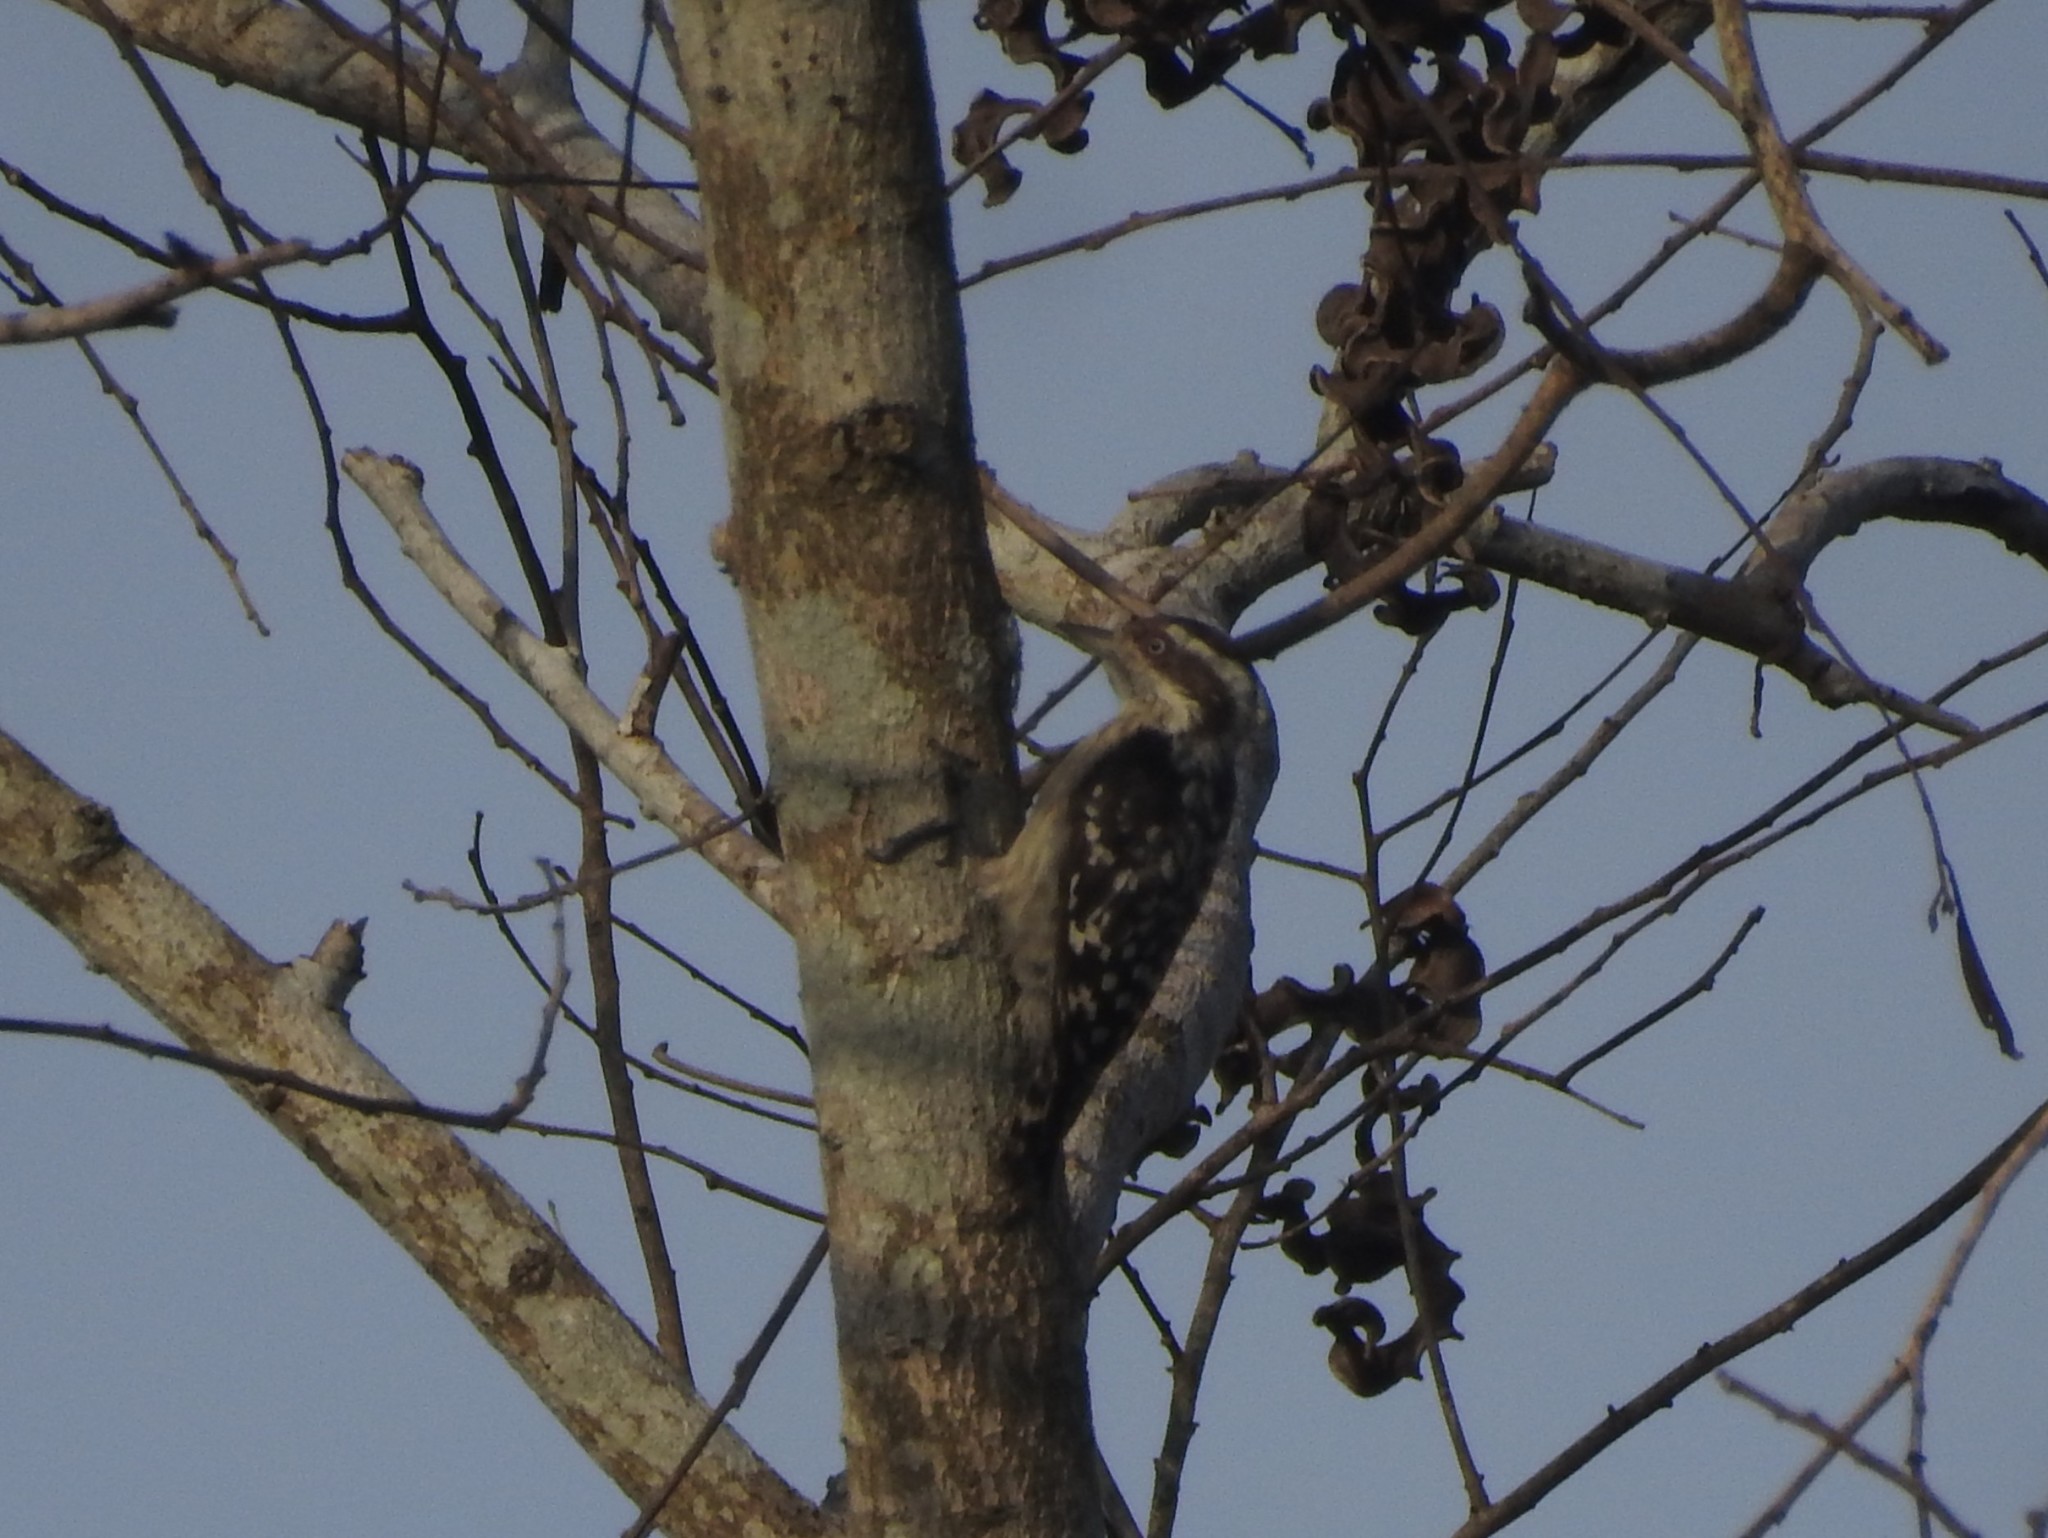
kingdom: Animalia
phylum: Chordata
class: Aves
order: Piciformes
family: Picidae
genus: Yungipicus
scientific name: Yungipicus nanus
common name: Brown-capped pygmy woodpecker
